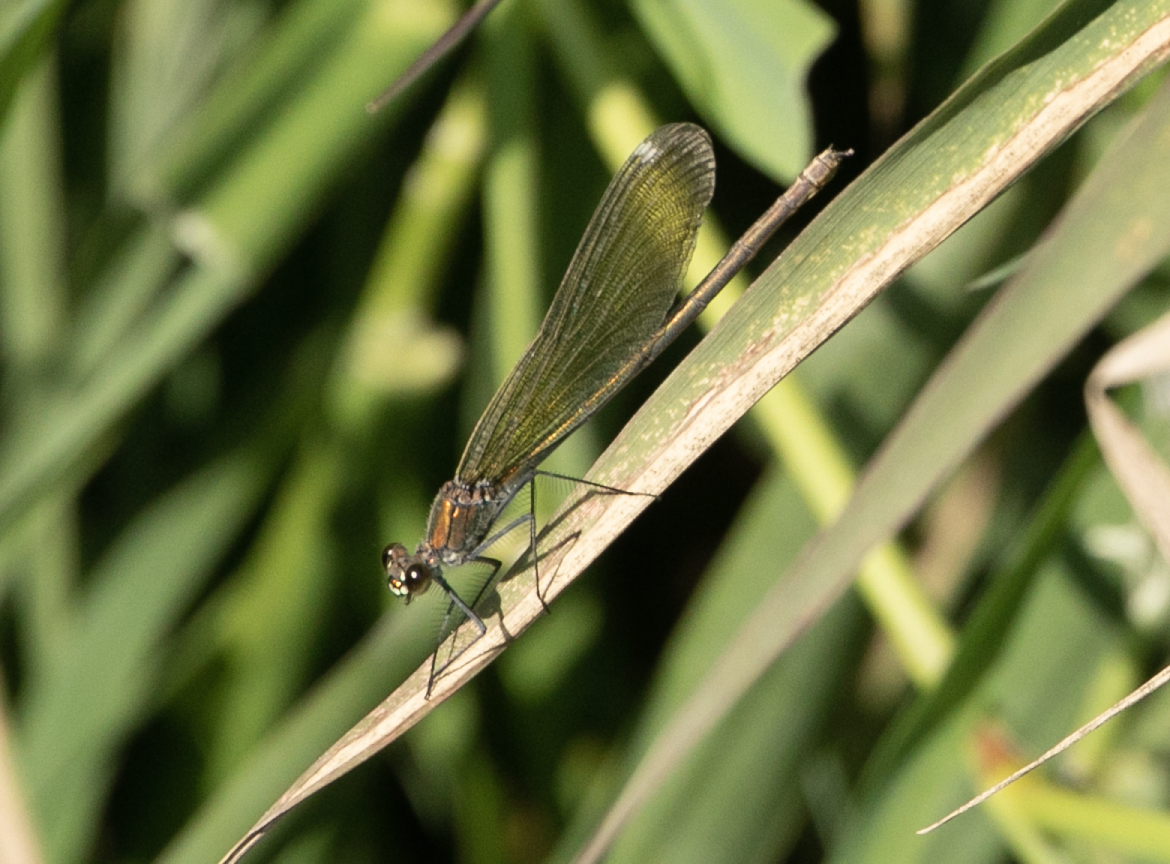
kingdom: Animalia
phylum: Arthropoda
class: Insecta
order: Odonata
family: Calopterygidae
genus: Calopteryx
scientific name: Calopteryx splendens
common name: Banded demoiselle
